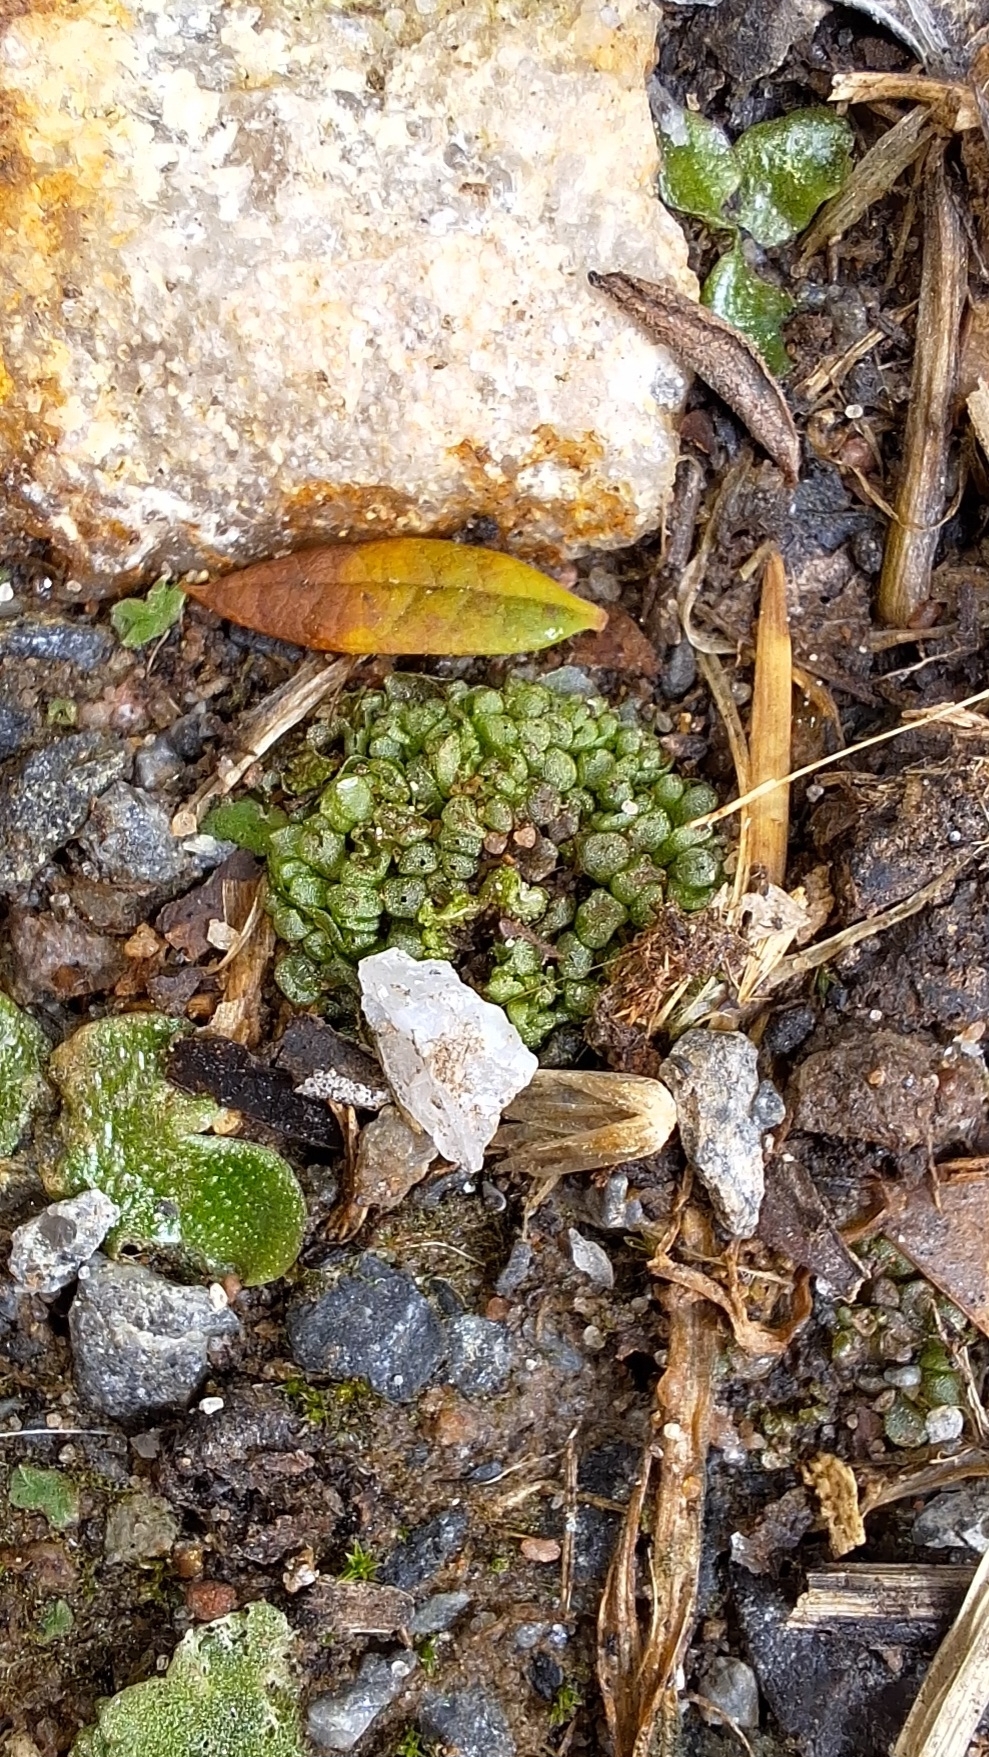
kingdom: Plantae
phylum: Marchantiophyta
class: Marchantiopsida
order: Sphaerocarpales
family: Sphaerocarpaceae
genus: Sphaerocarpos
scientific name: Sphaerocarpos texanus
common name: Texas balloonwort
